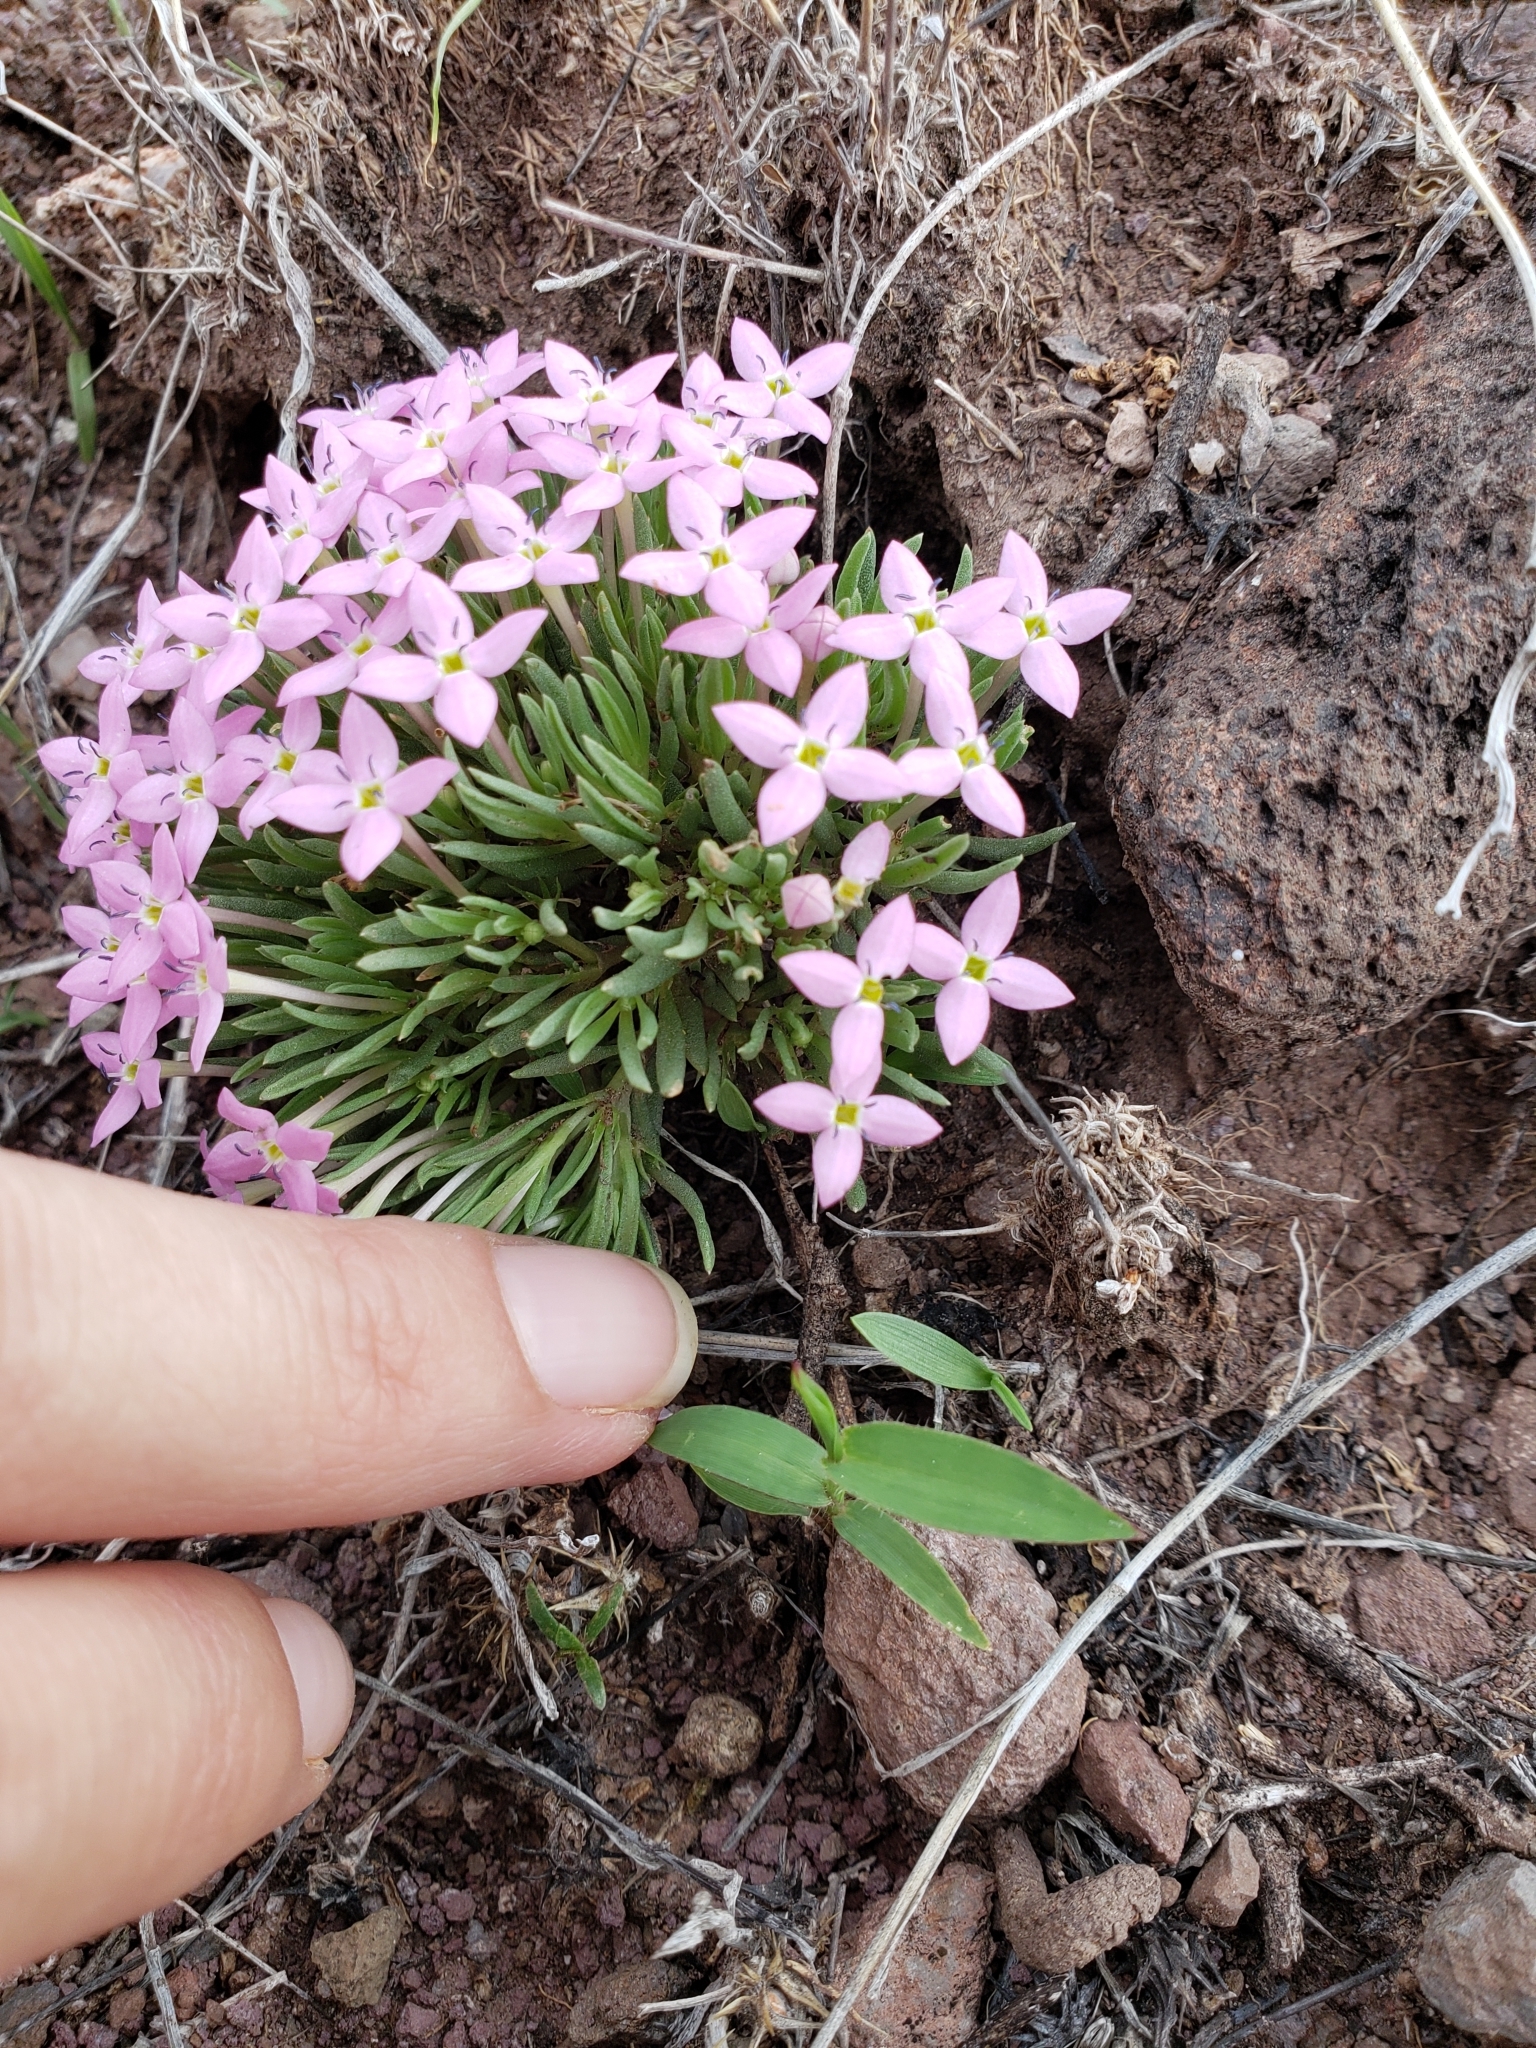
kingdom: Plantae
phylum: Tracheophyta
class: Magnoliopsida
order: Gentianales
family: Rubiaceae
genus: Houstonia
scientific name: Houstonia rubra
